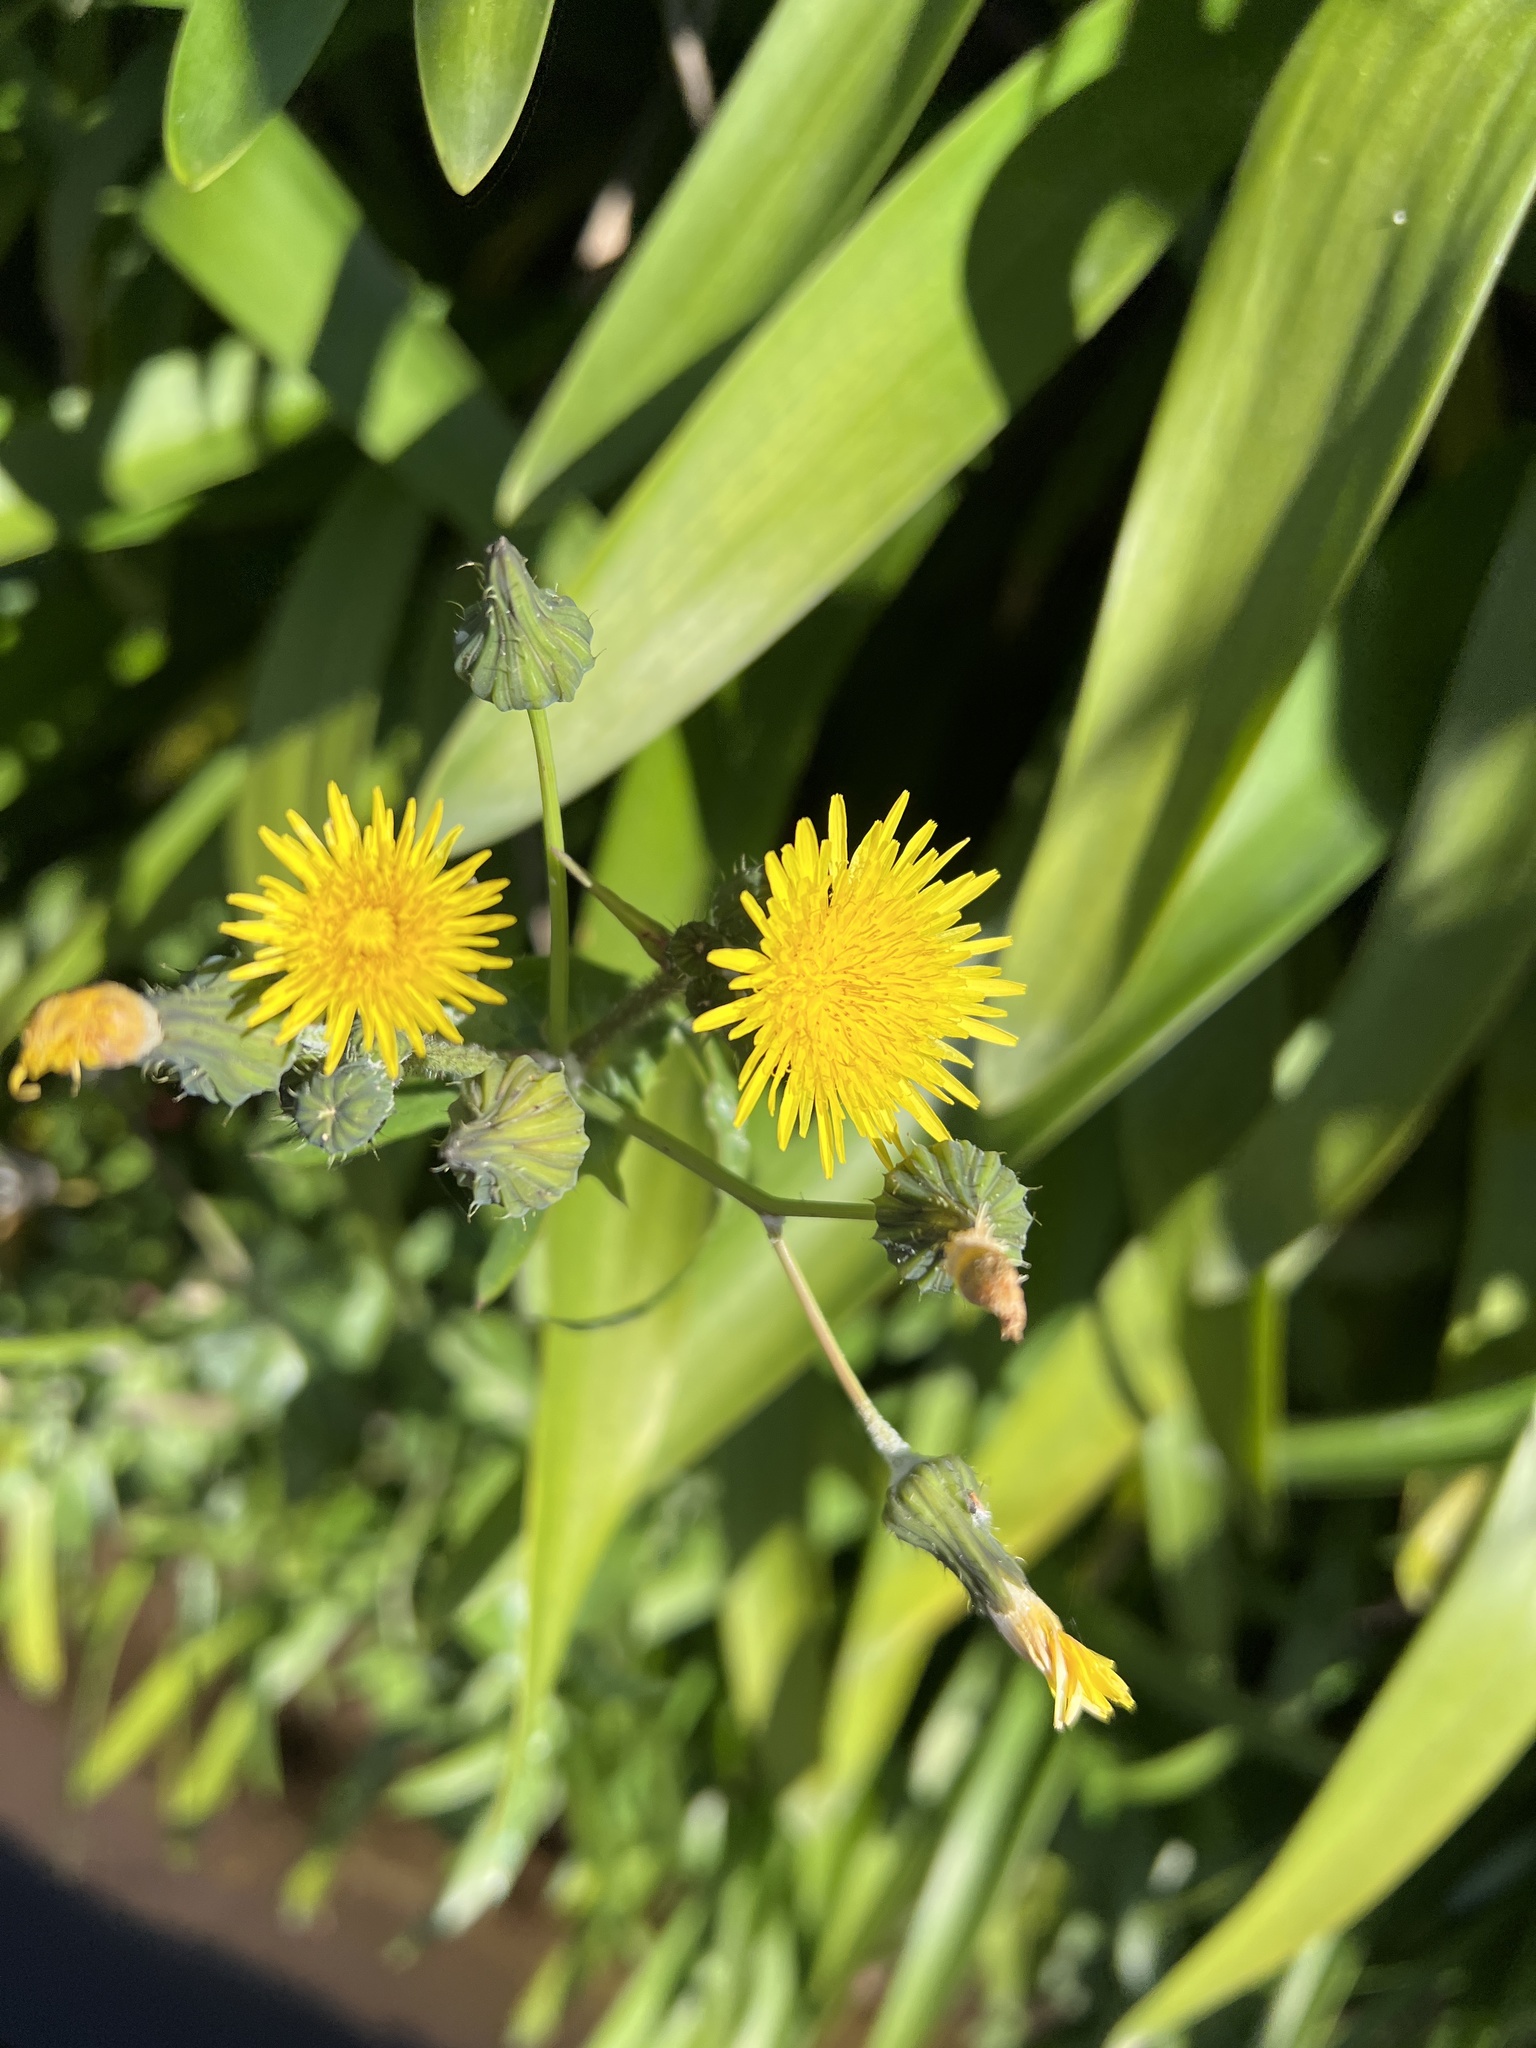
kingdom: Plantae
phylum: Tracheophyta
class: Magnoliopsida
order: Asterales
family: Asteraceae
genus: Sonchus
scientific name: Sonchus oleraceus
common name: Common sowthistle
